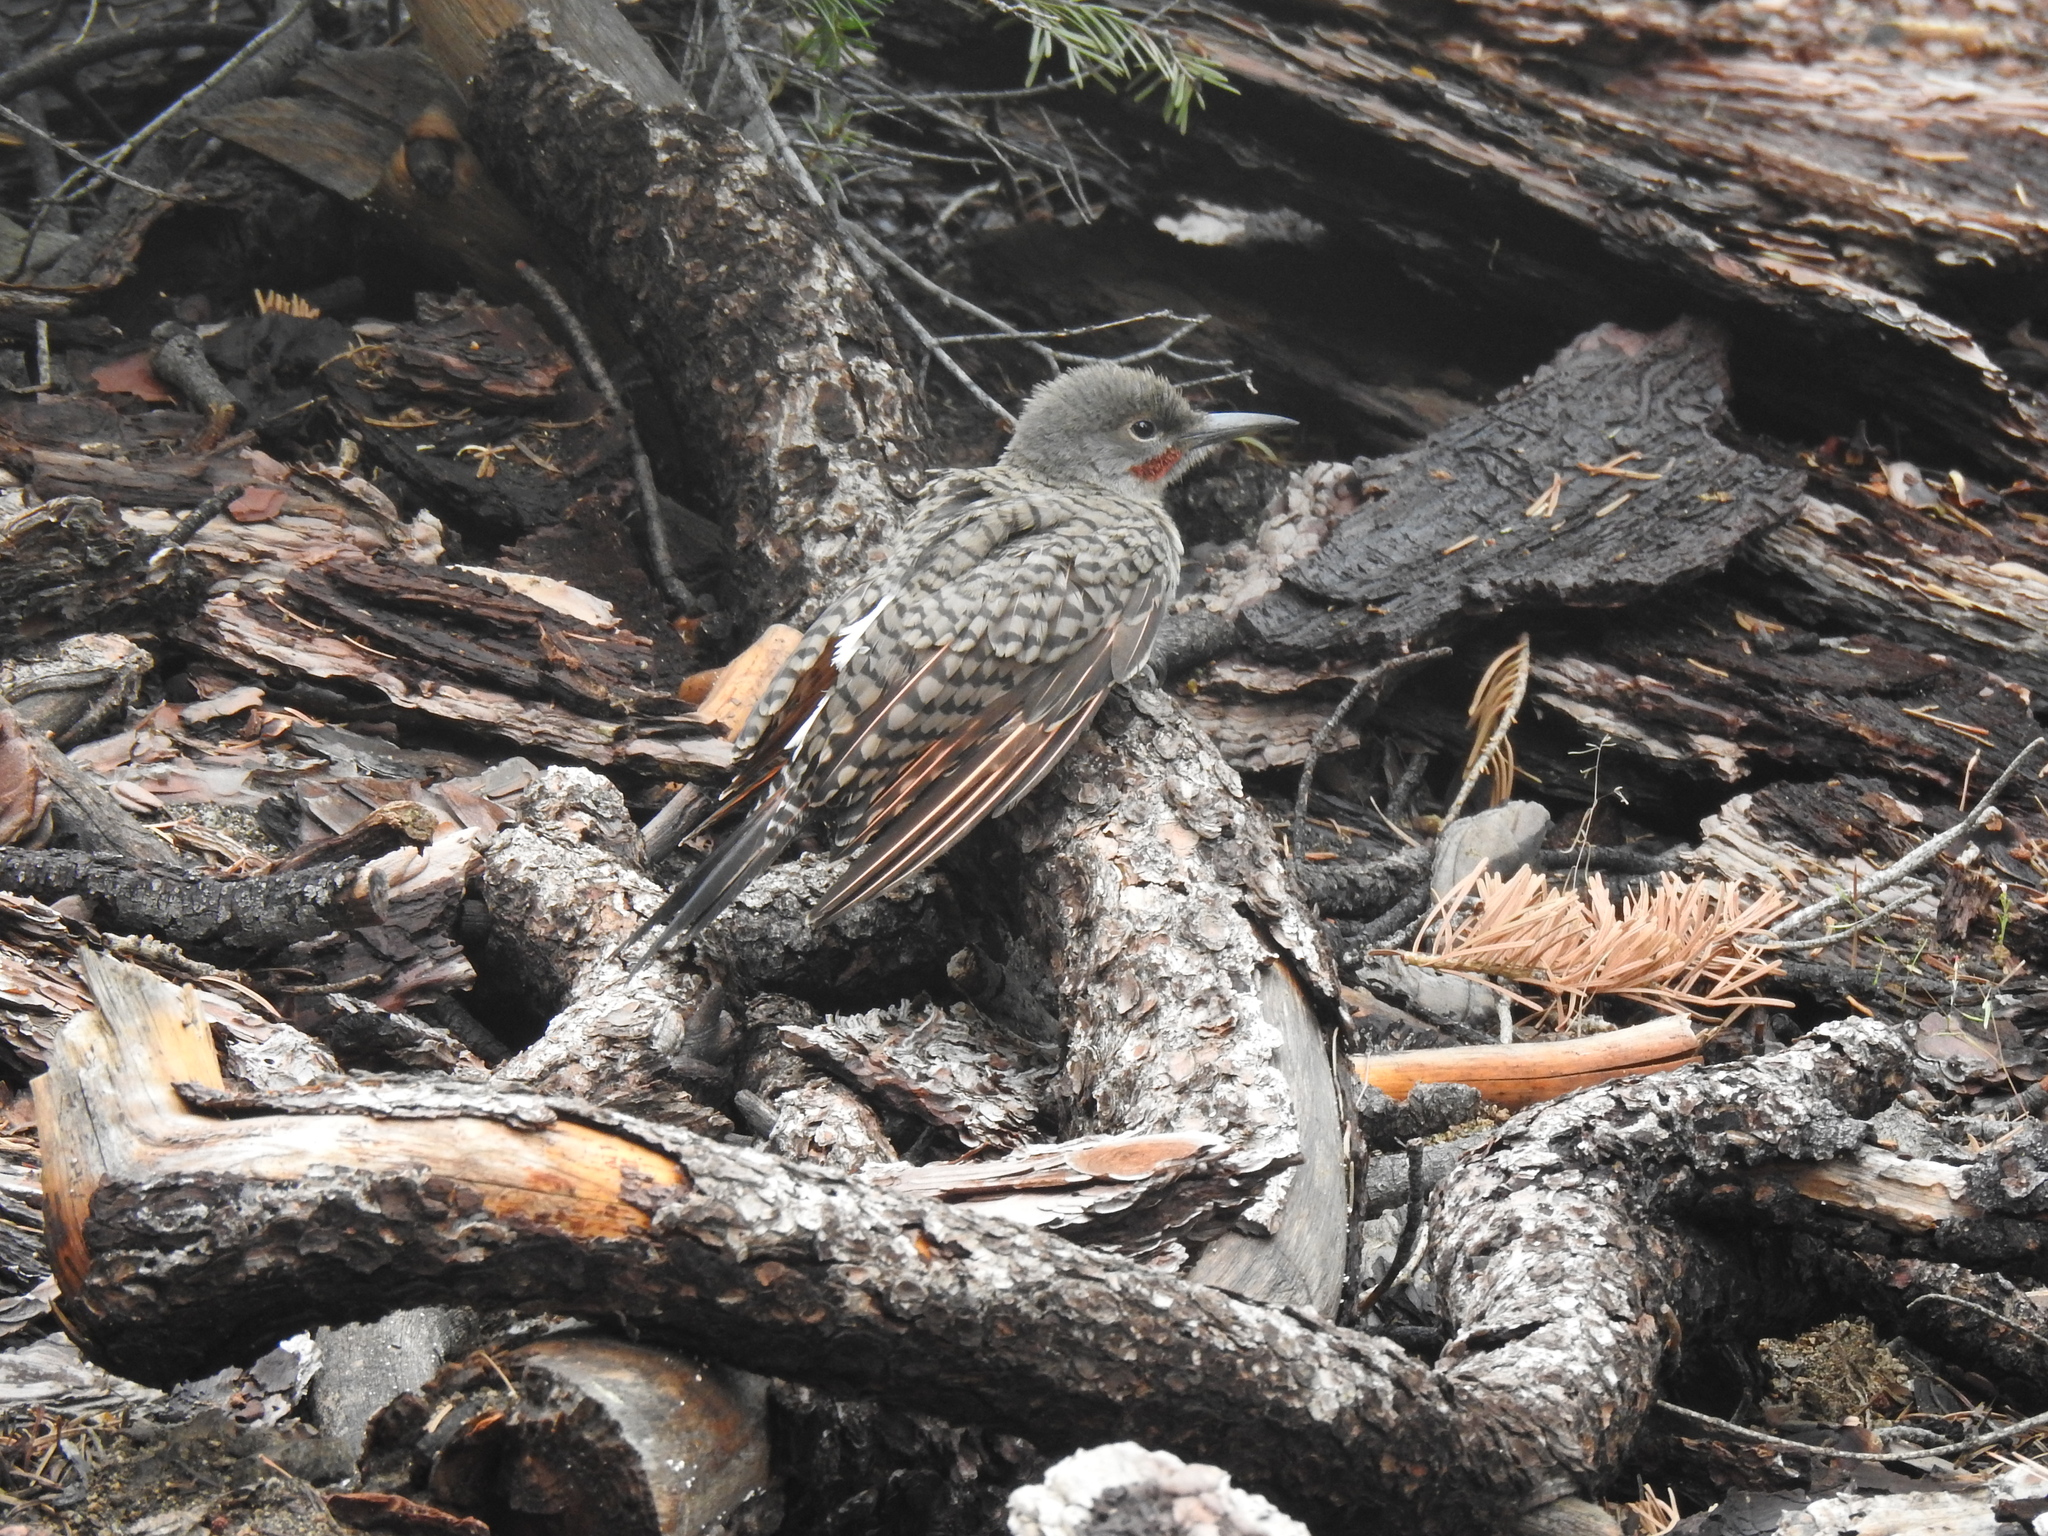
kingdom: Animalia
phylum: Chordata
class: Aves
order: Piciformes
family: Picidae
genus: Colaptes
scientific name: Colaptes auratus
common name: Northern flicker
